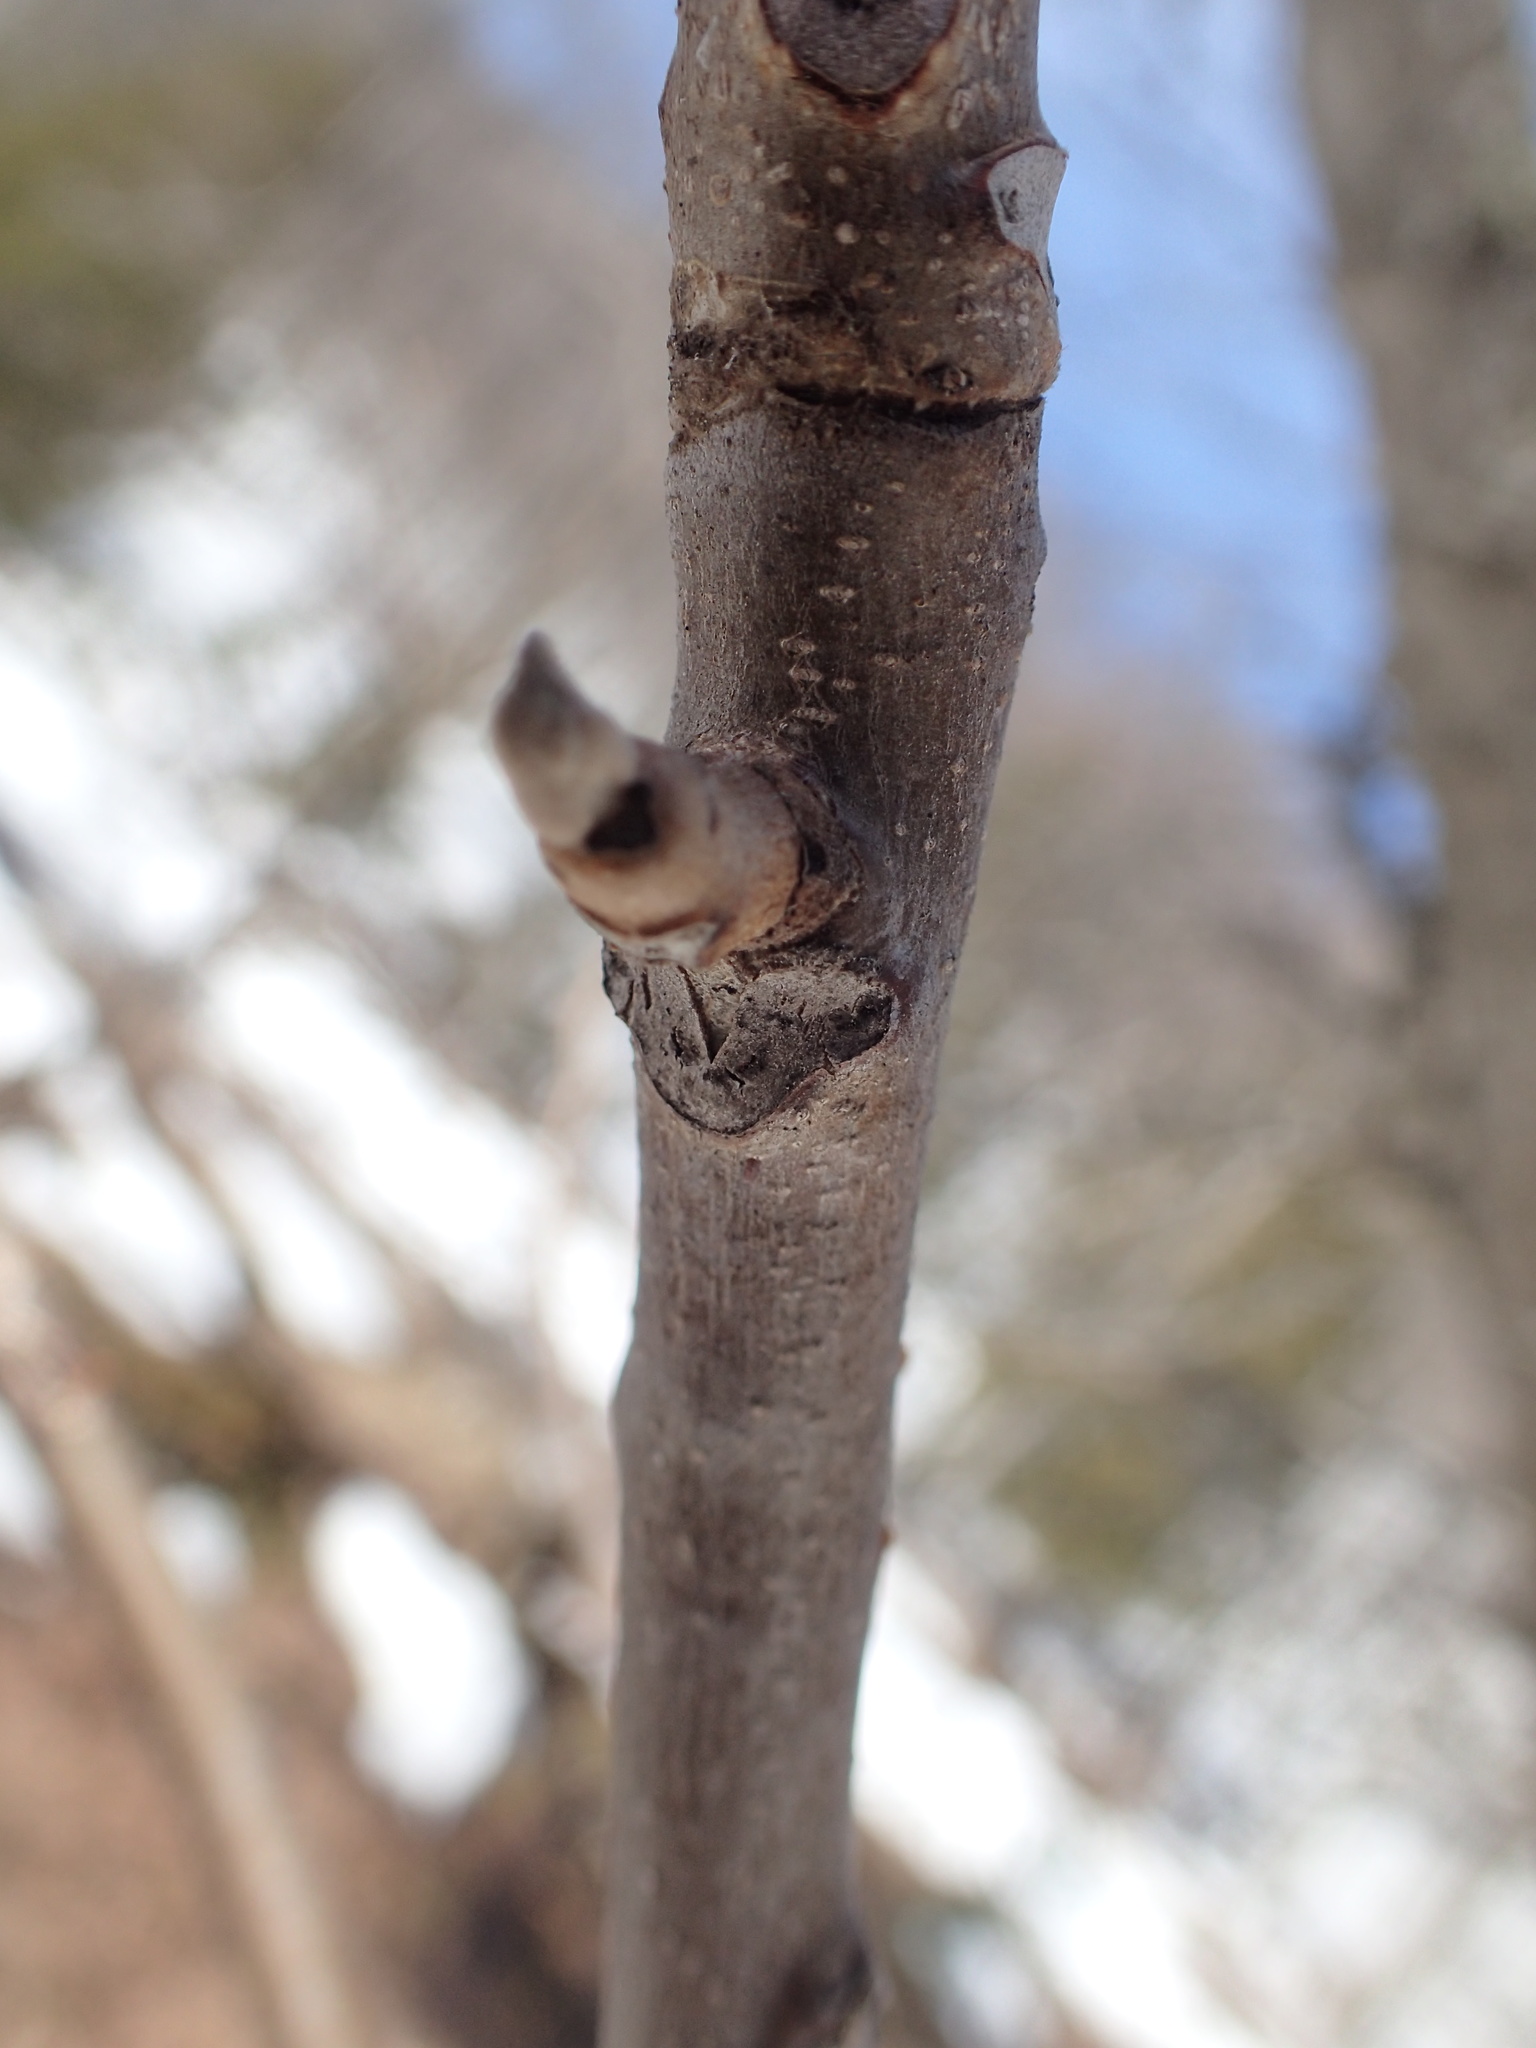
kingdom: Plantae
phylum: Tracheophyta
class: Magnoliopsida
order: Fagales
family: Juglandaceae
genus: Juglans
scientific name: Juglans nigra
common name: Black walnut
